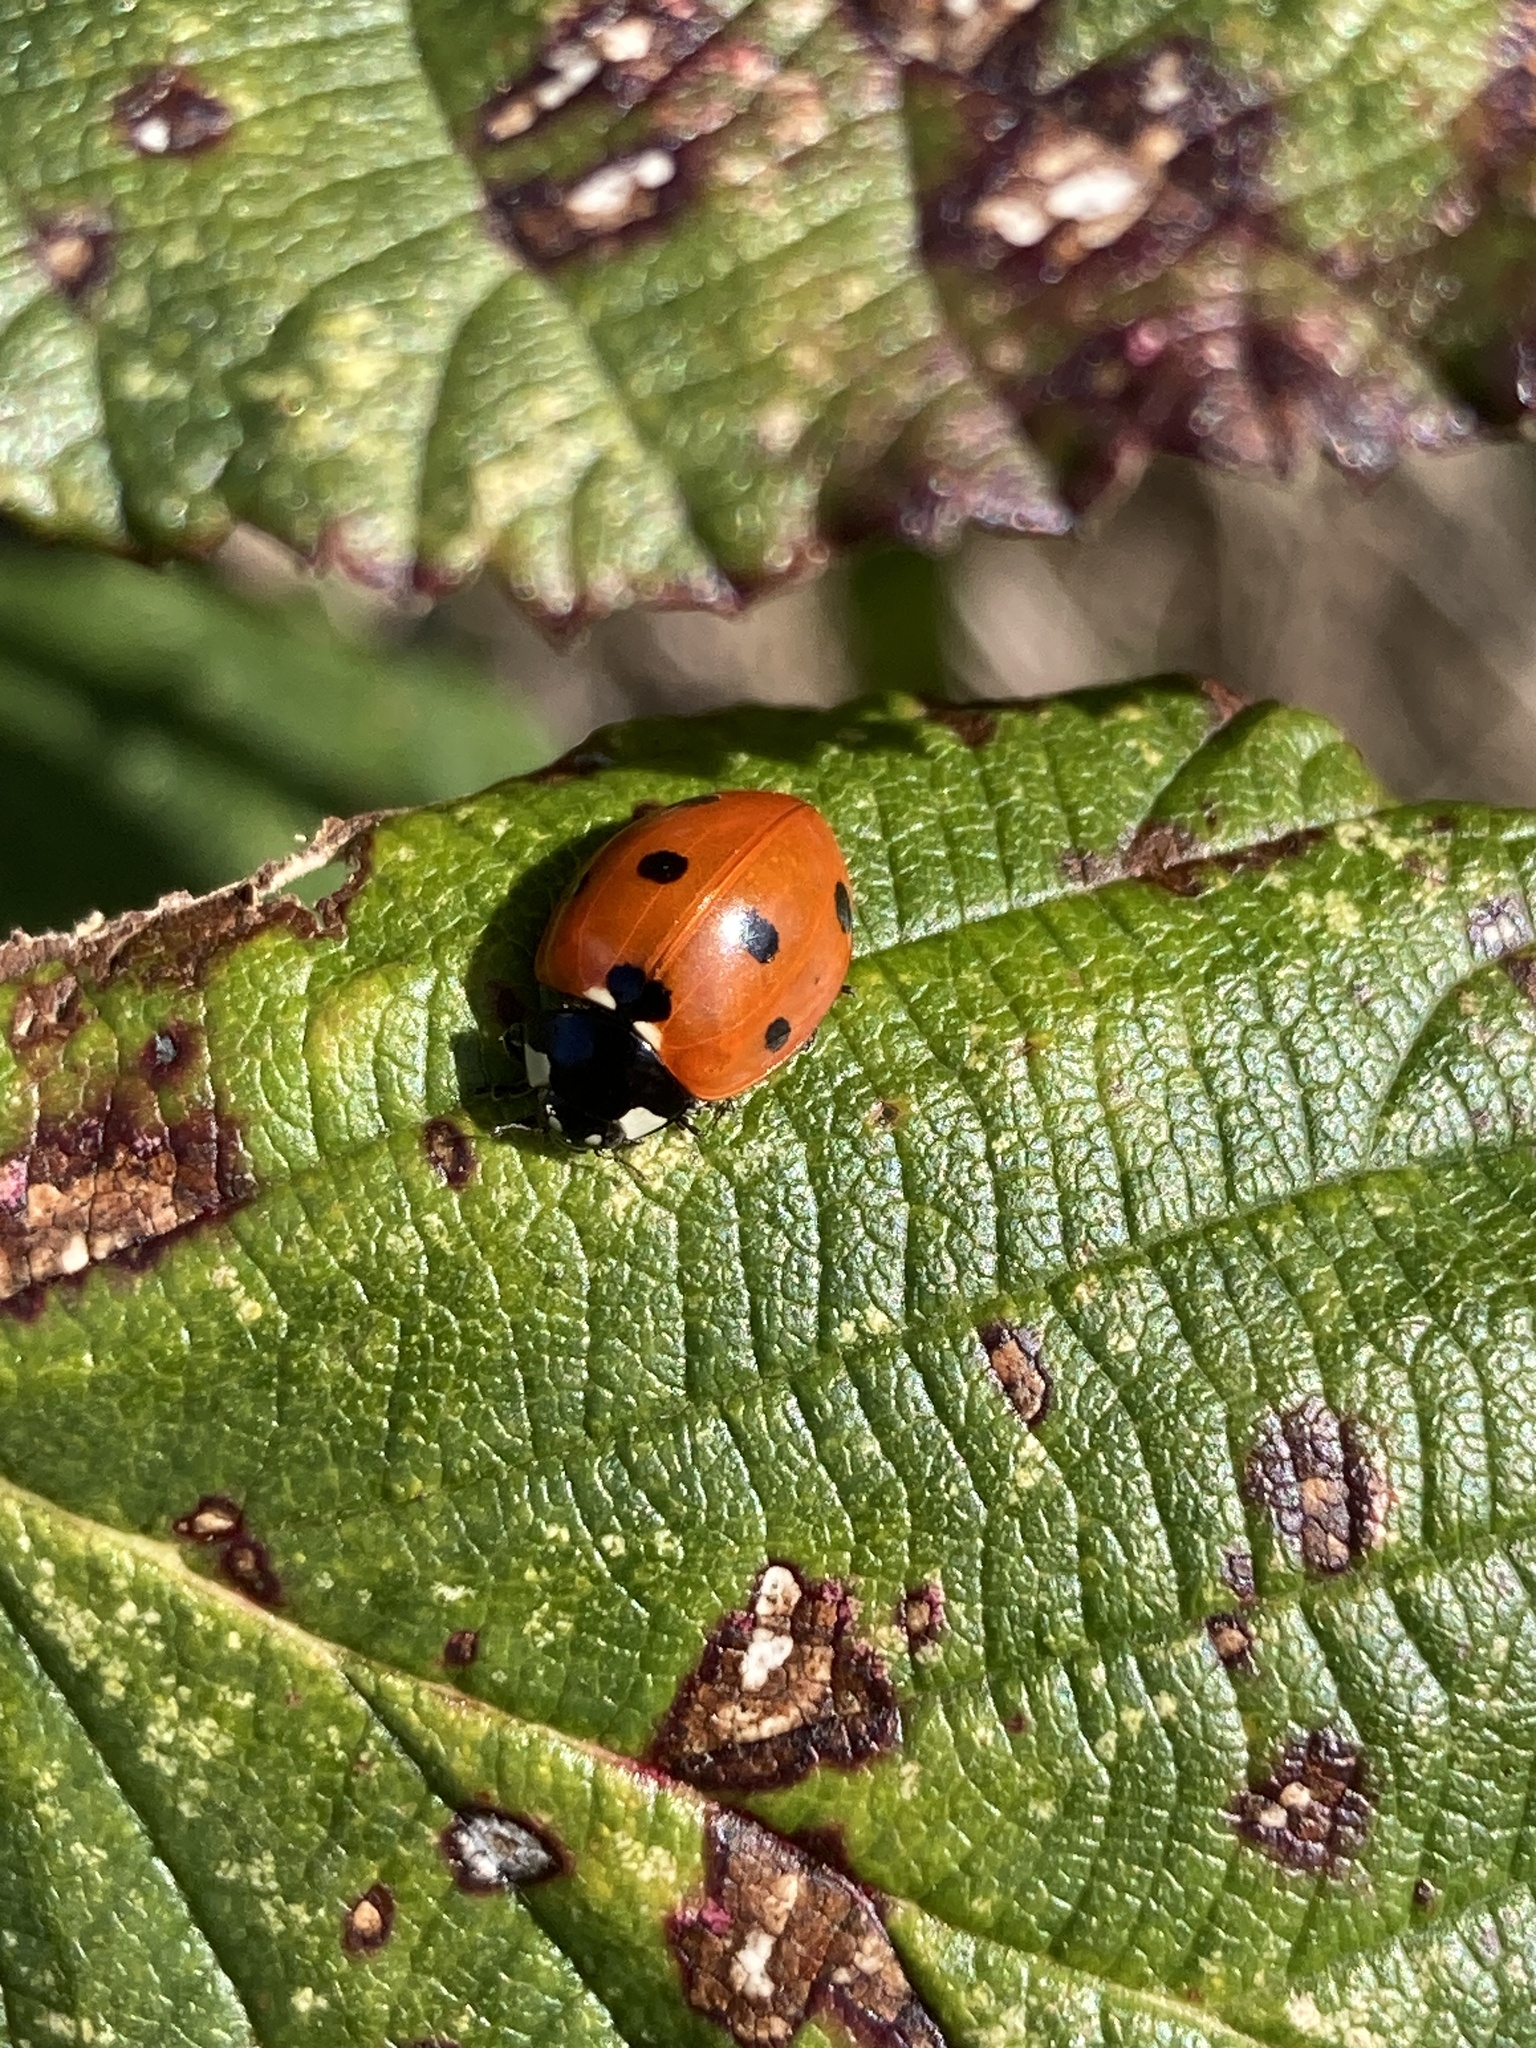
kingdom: Animalia
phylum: Arthropoda
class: Insecta
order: Coleoptera
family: Coccinellidae
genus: Coccinella
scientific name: Coccinella septempunctata
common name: Sevenspotted lady beetle
